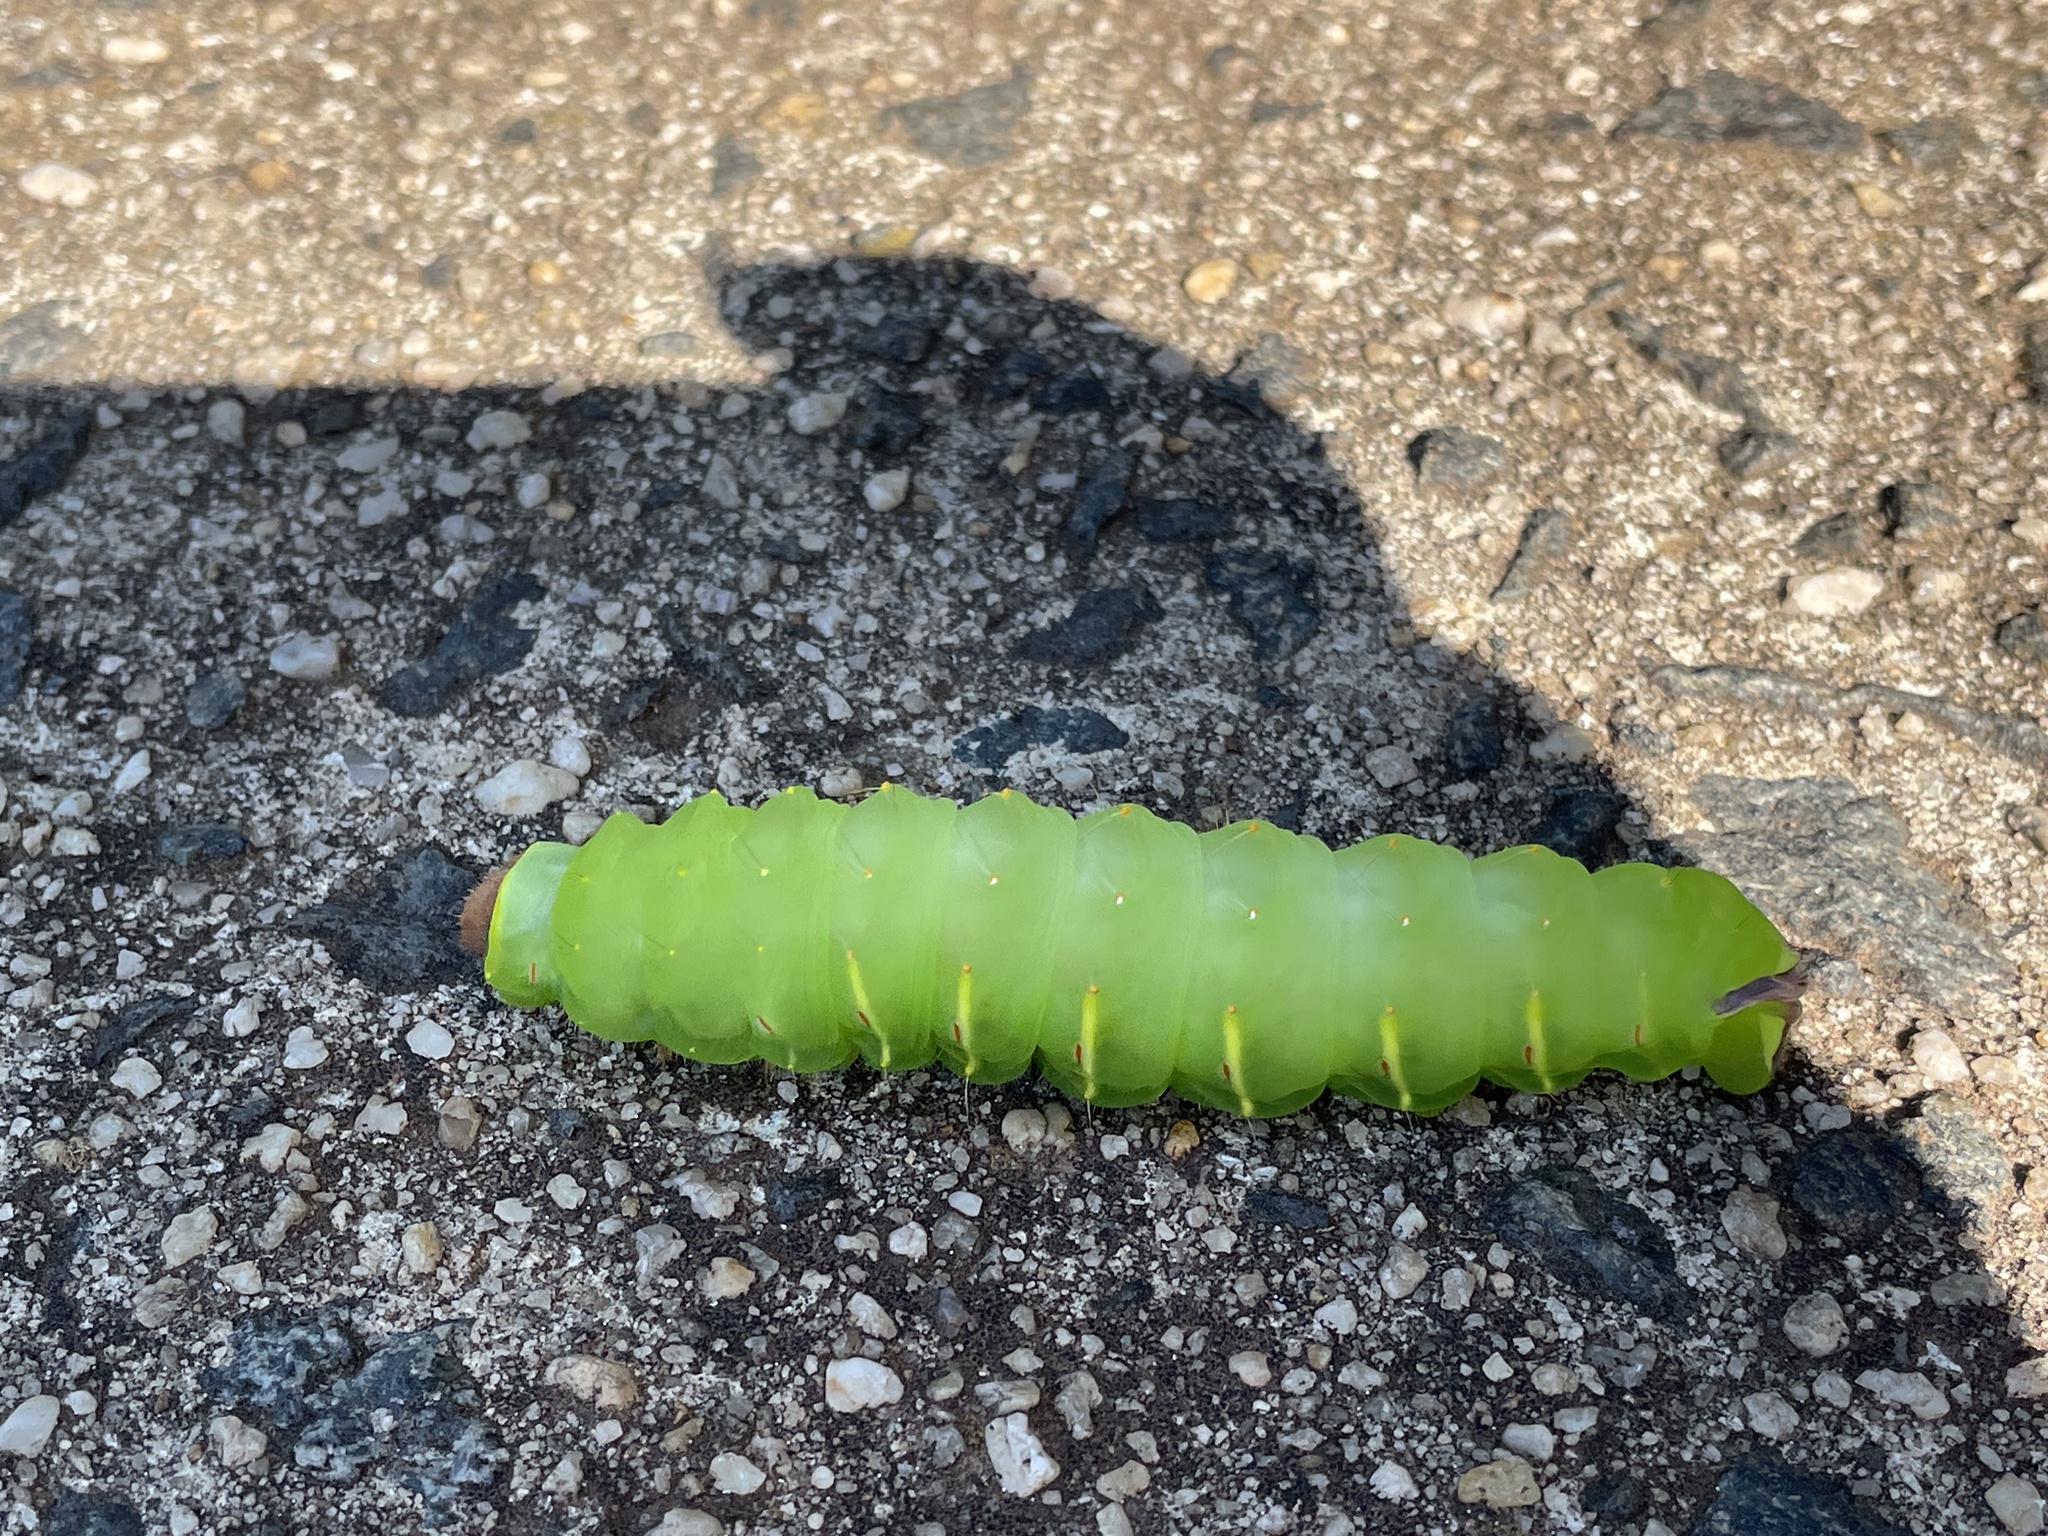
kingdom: Animalia
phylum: Arthropoda
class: Insecta
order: Lepidoptera
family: Saturniidae
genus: Antheraea
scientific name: Antheraea polyphemus
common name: Polyphemus moth
